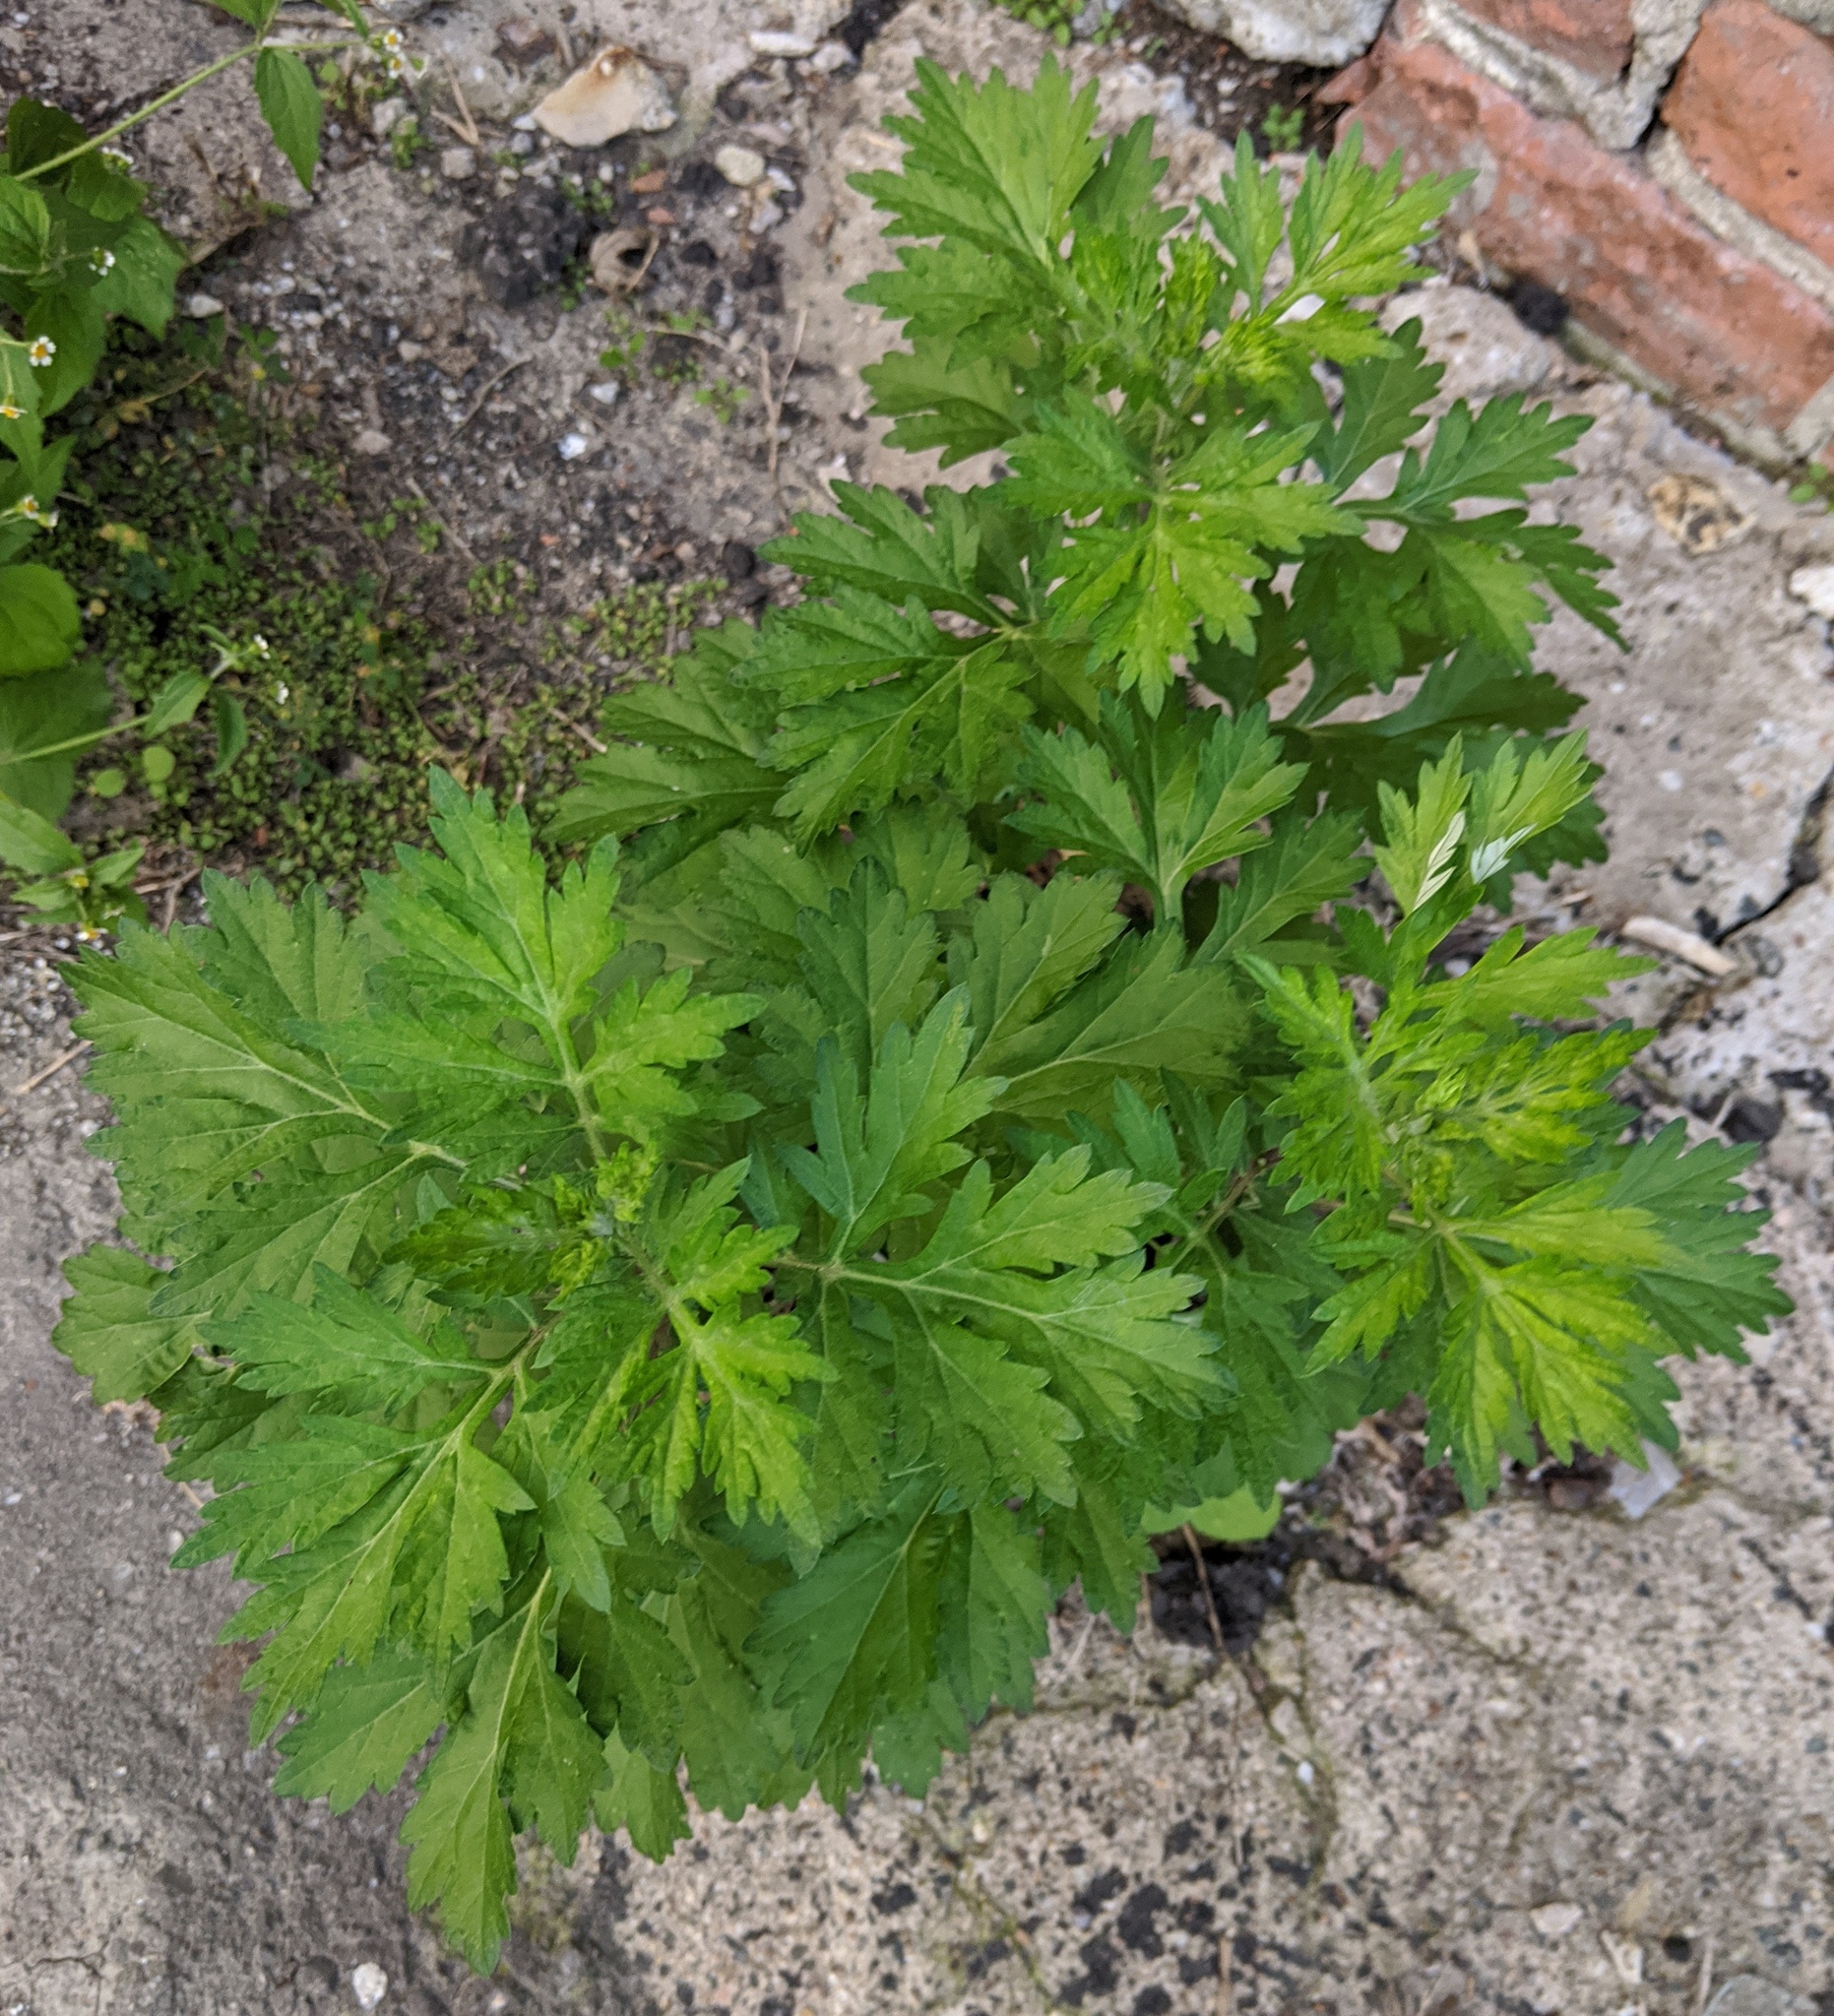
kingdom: Plantae
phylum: Tracheophyta
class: Magnoliopsida
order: Asterales
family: Asteraceae
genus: Artemisia
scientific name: Artemisia vulgaris
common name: Mugwort
